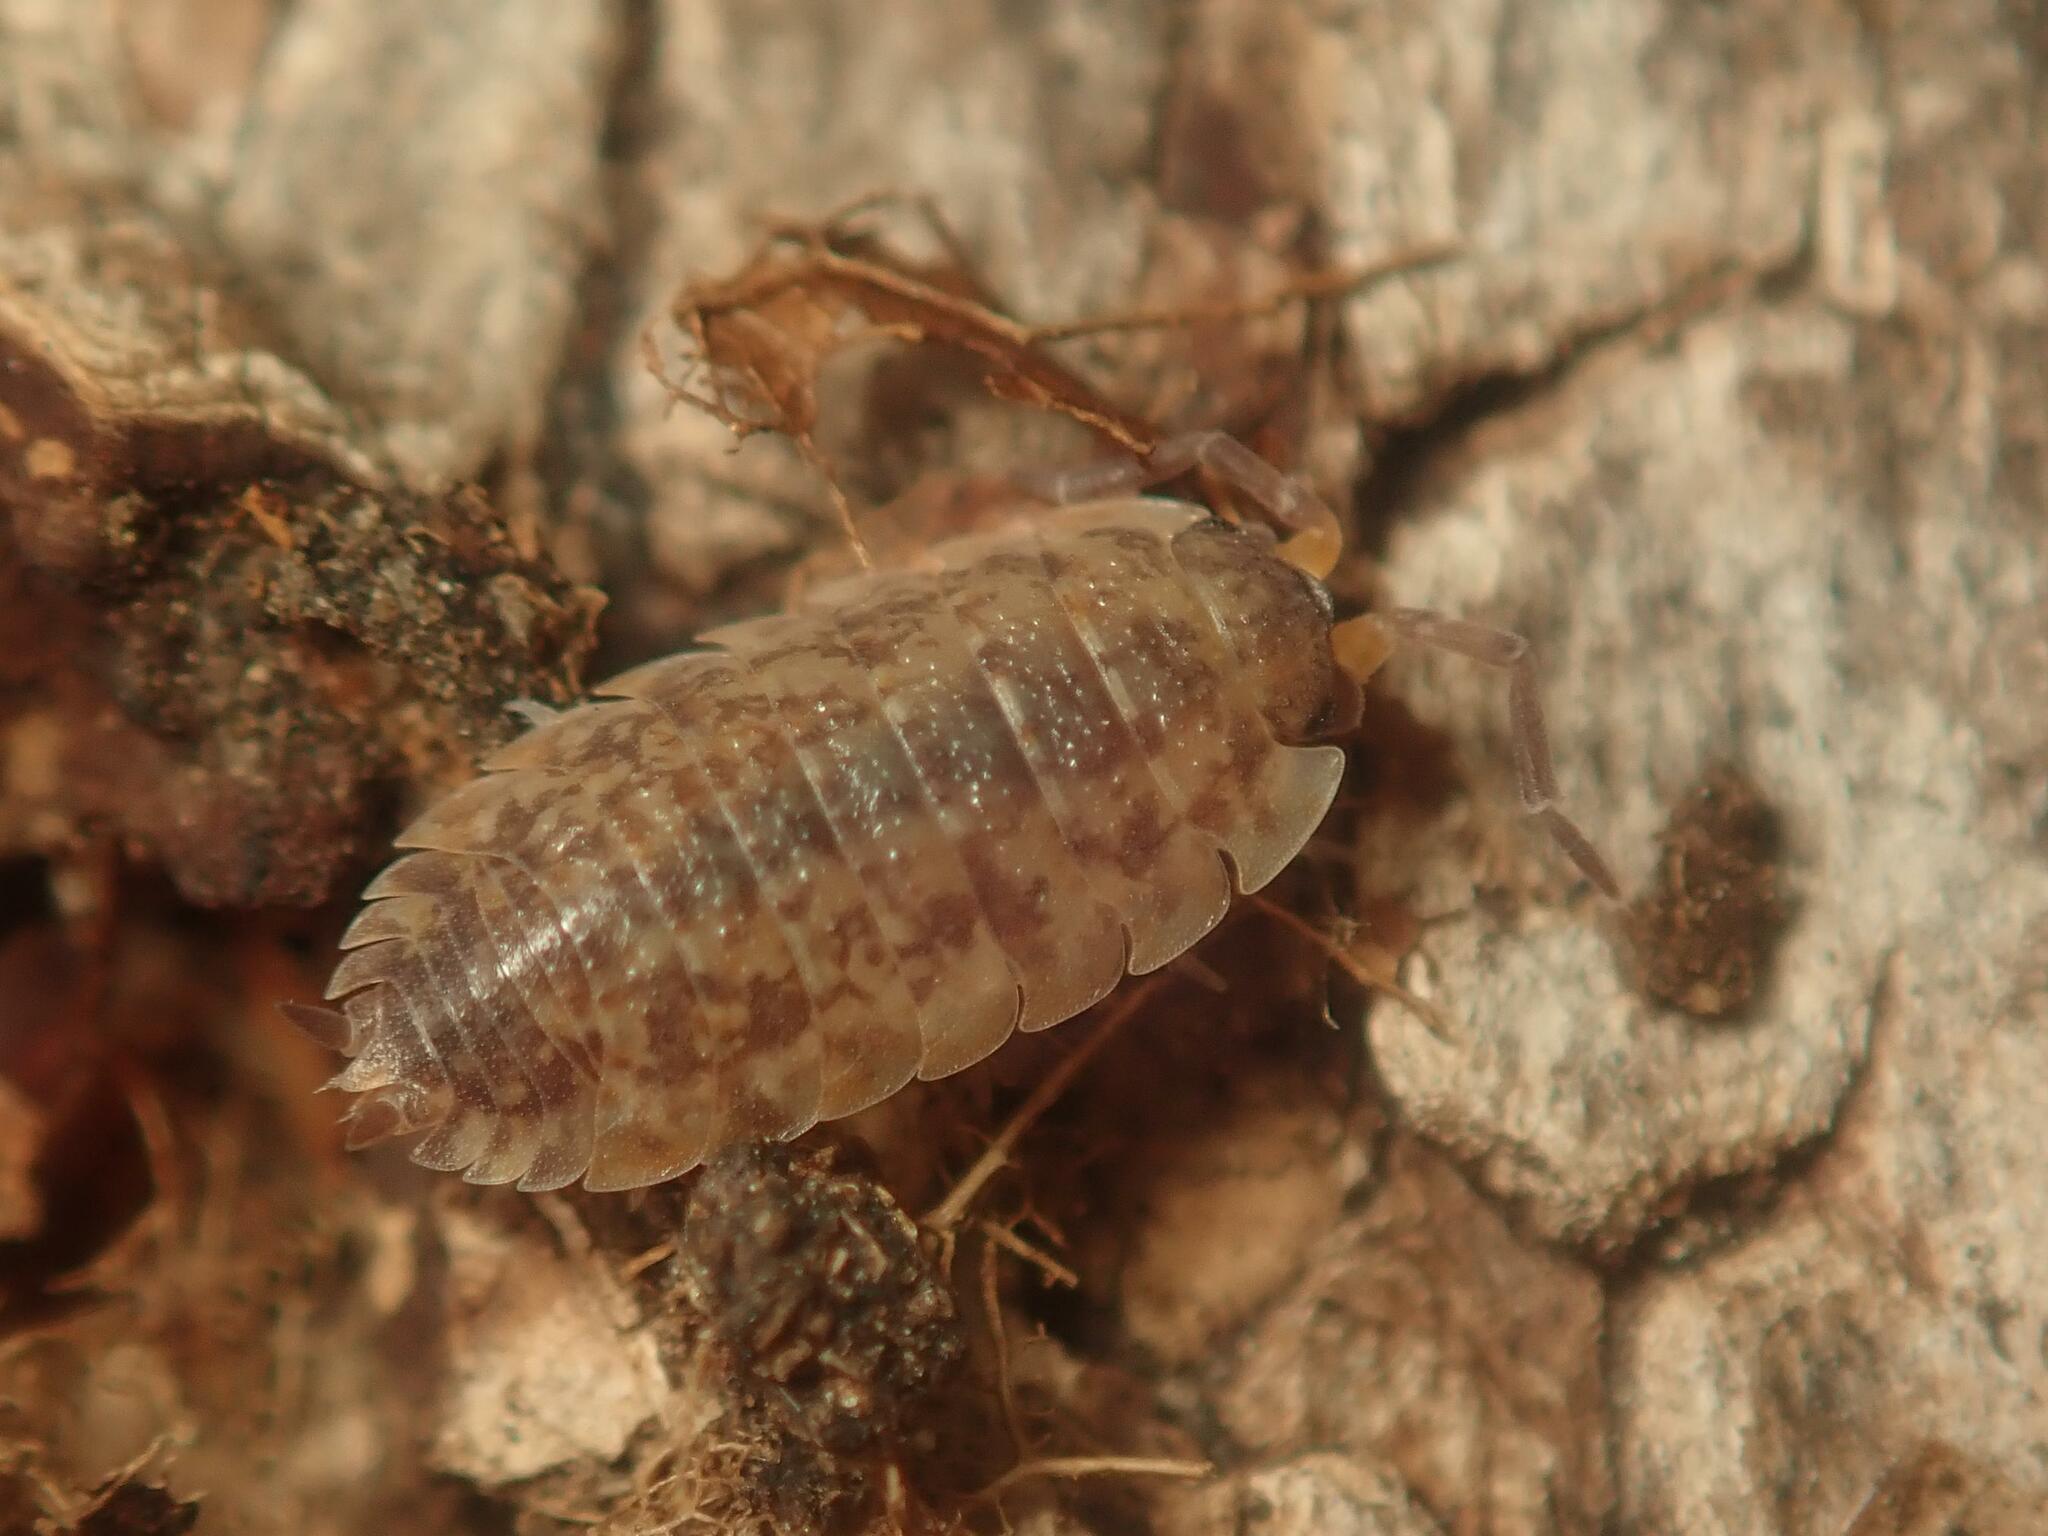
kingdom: Animalia
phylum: Arthropoda
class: Malacostraca
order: Isopoda
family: Porcellionidae
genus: Porcellio
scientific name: Porcellio scaber
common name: Common rough woodlouse
